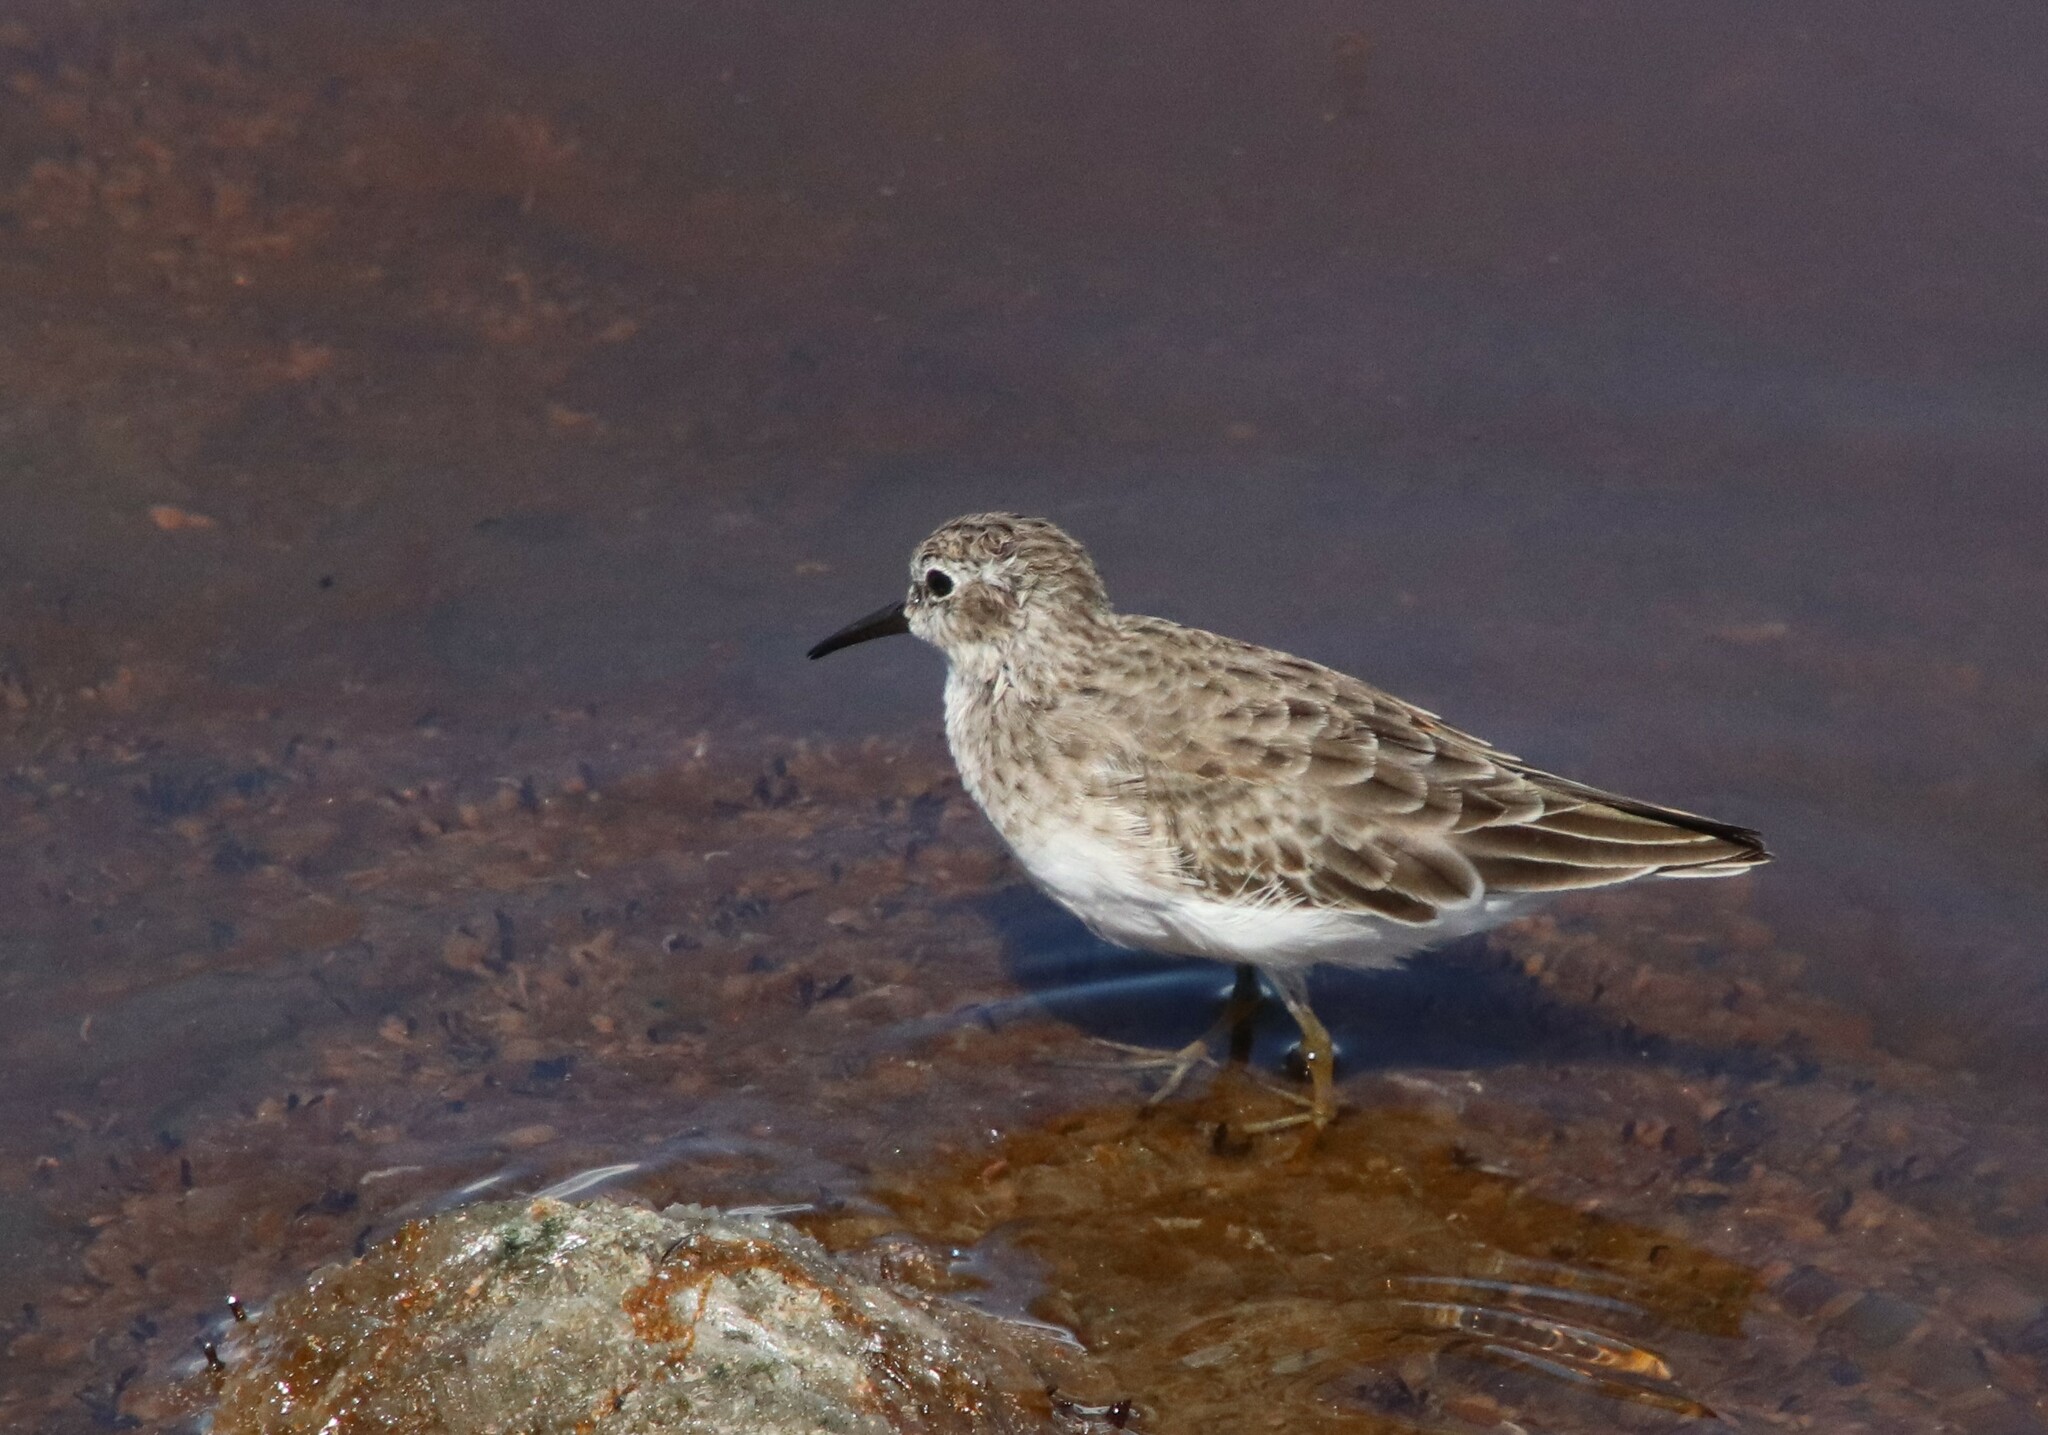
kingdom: Animalia
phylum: Chordata
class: Aves
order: Charadriiformes
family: Scolopacidae
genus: Calidris
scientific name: Calidris minutilla
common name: Least sandpiper
